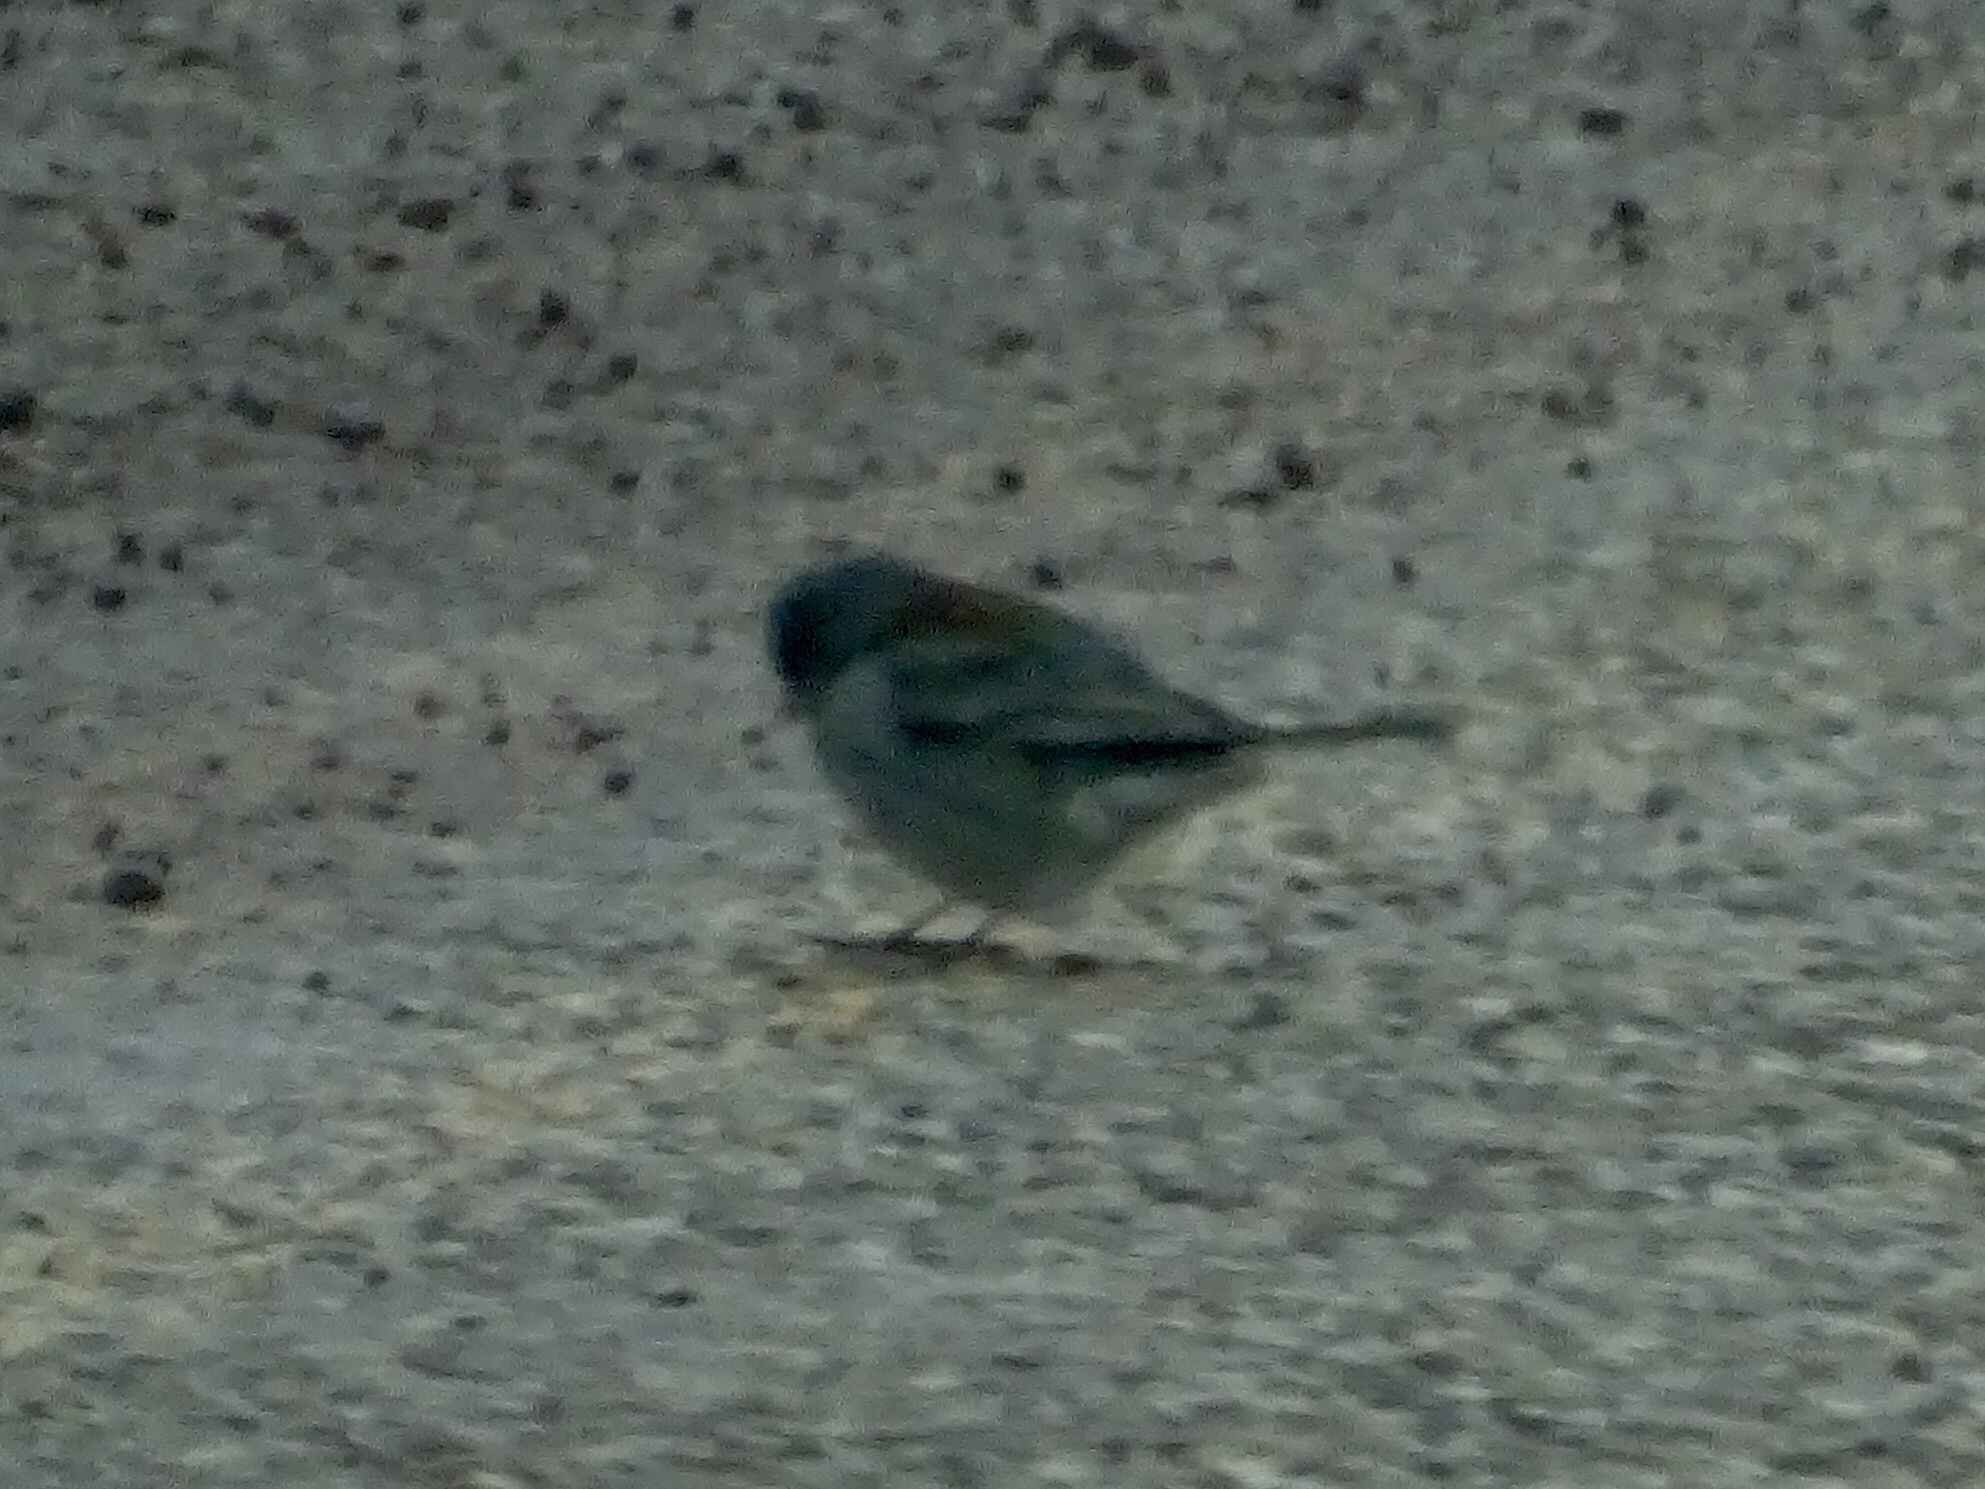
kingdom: Animalia
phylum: Chordata
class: Aves
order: Passeriformes
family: Passerellidae
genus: Junco
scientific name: Junco hyemalis
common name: Dark-eyed junco
